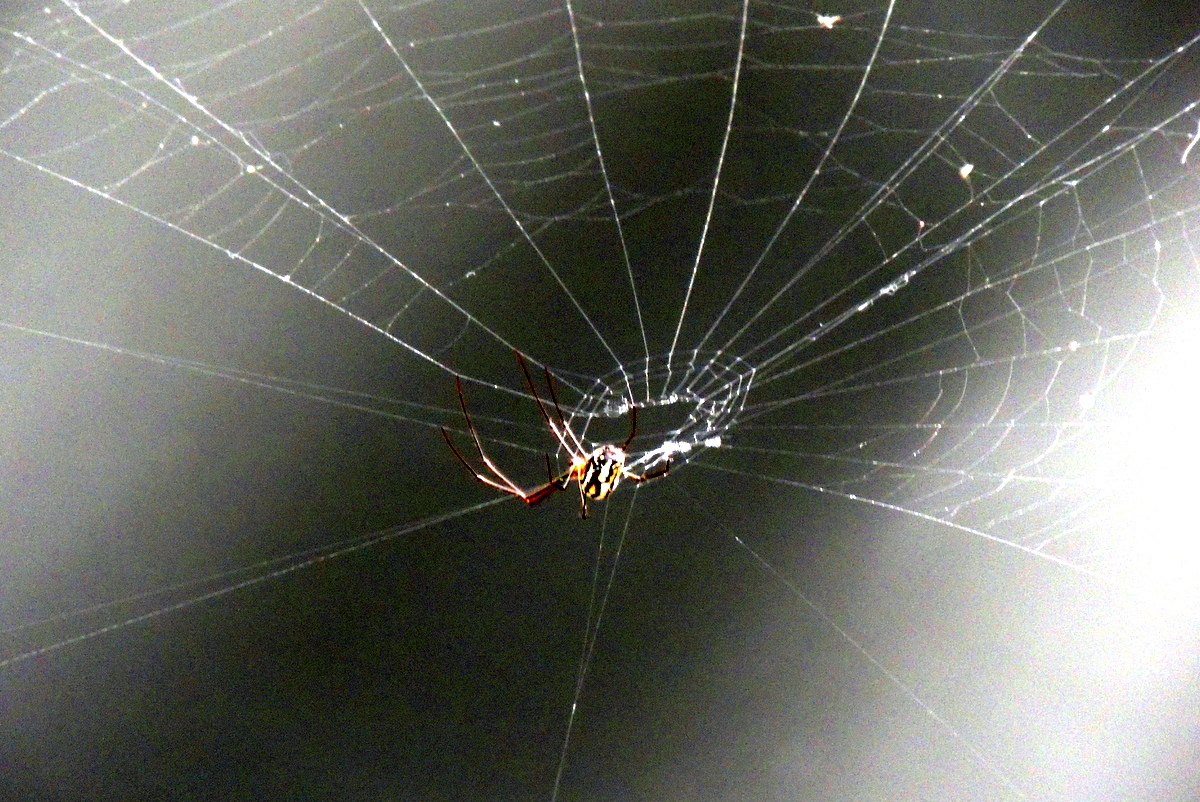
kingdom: Animalia
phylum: Arthropoda
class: Arachnida
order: Araneae
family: Tetragnathidae
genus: Leucauge
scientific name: Leucauge argyra
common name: Longjawed orb weavers
